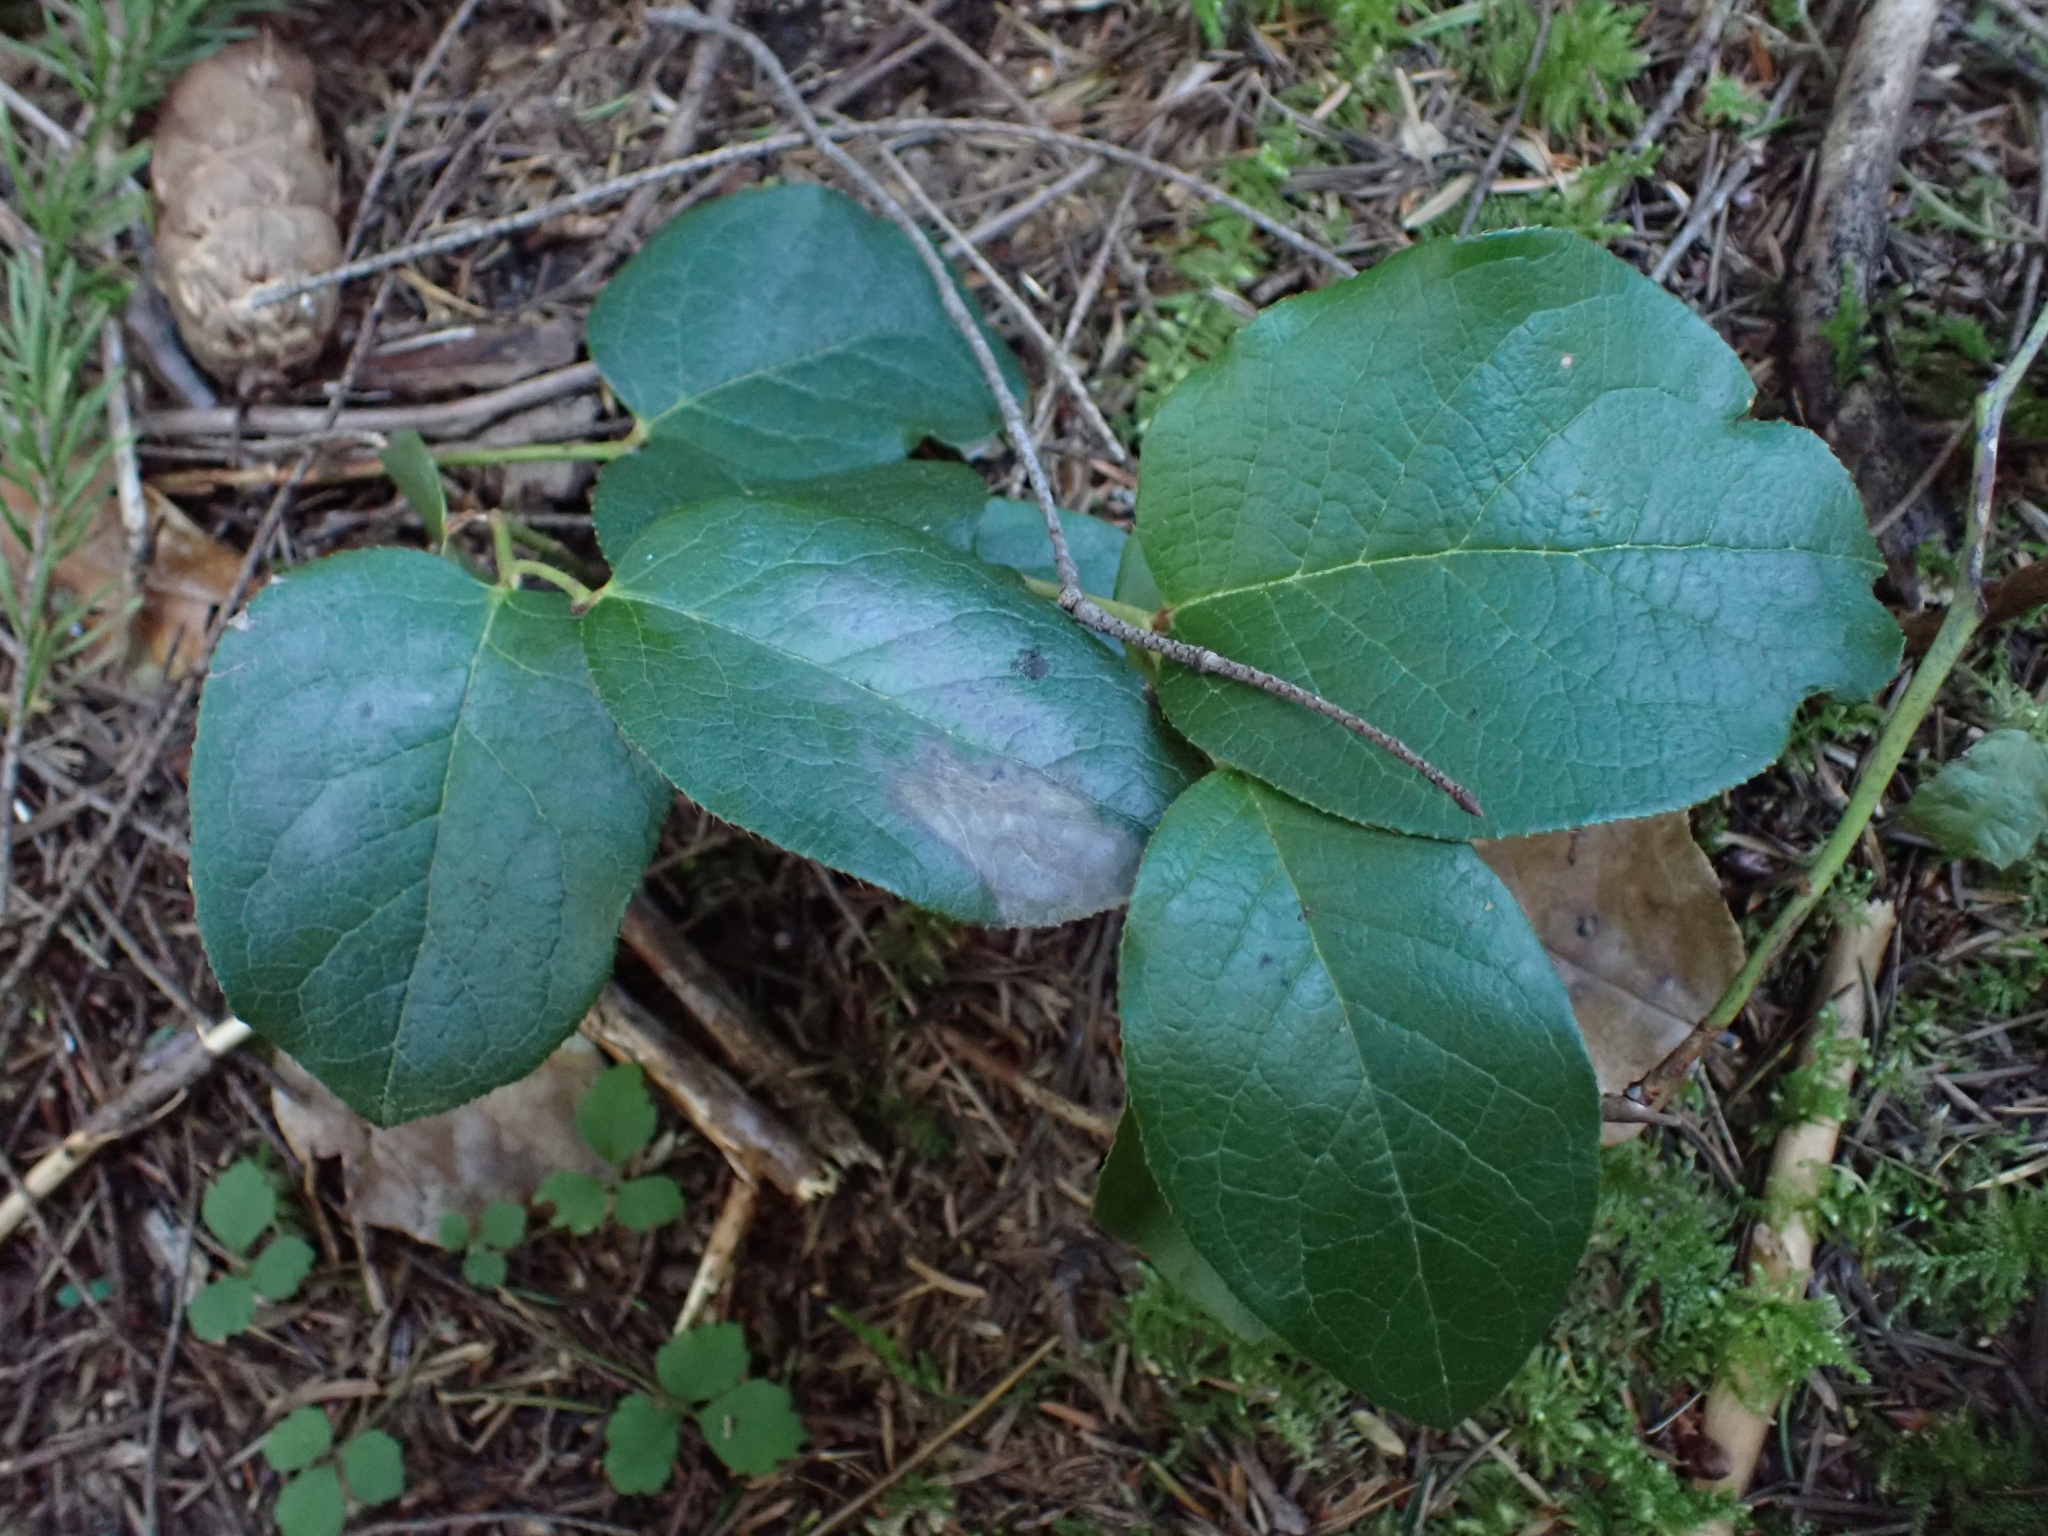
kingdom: Plantae
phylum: Tracheophyta
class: Magnoliopsida
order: Ericales
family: Ericaceae
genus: Gaultheria
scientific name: Gaultheria shallon
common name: Shallon
